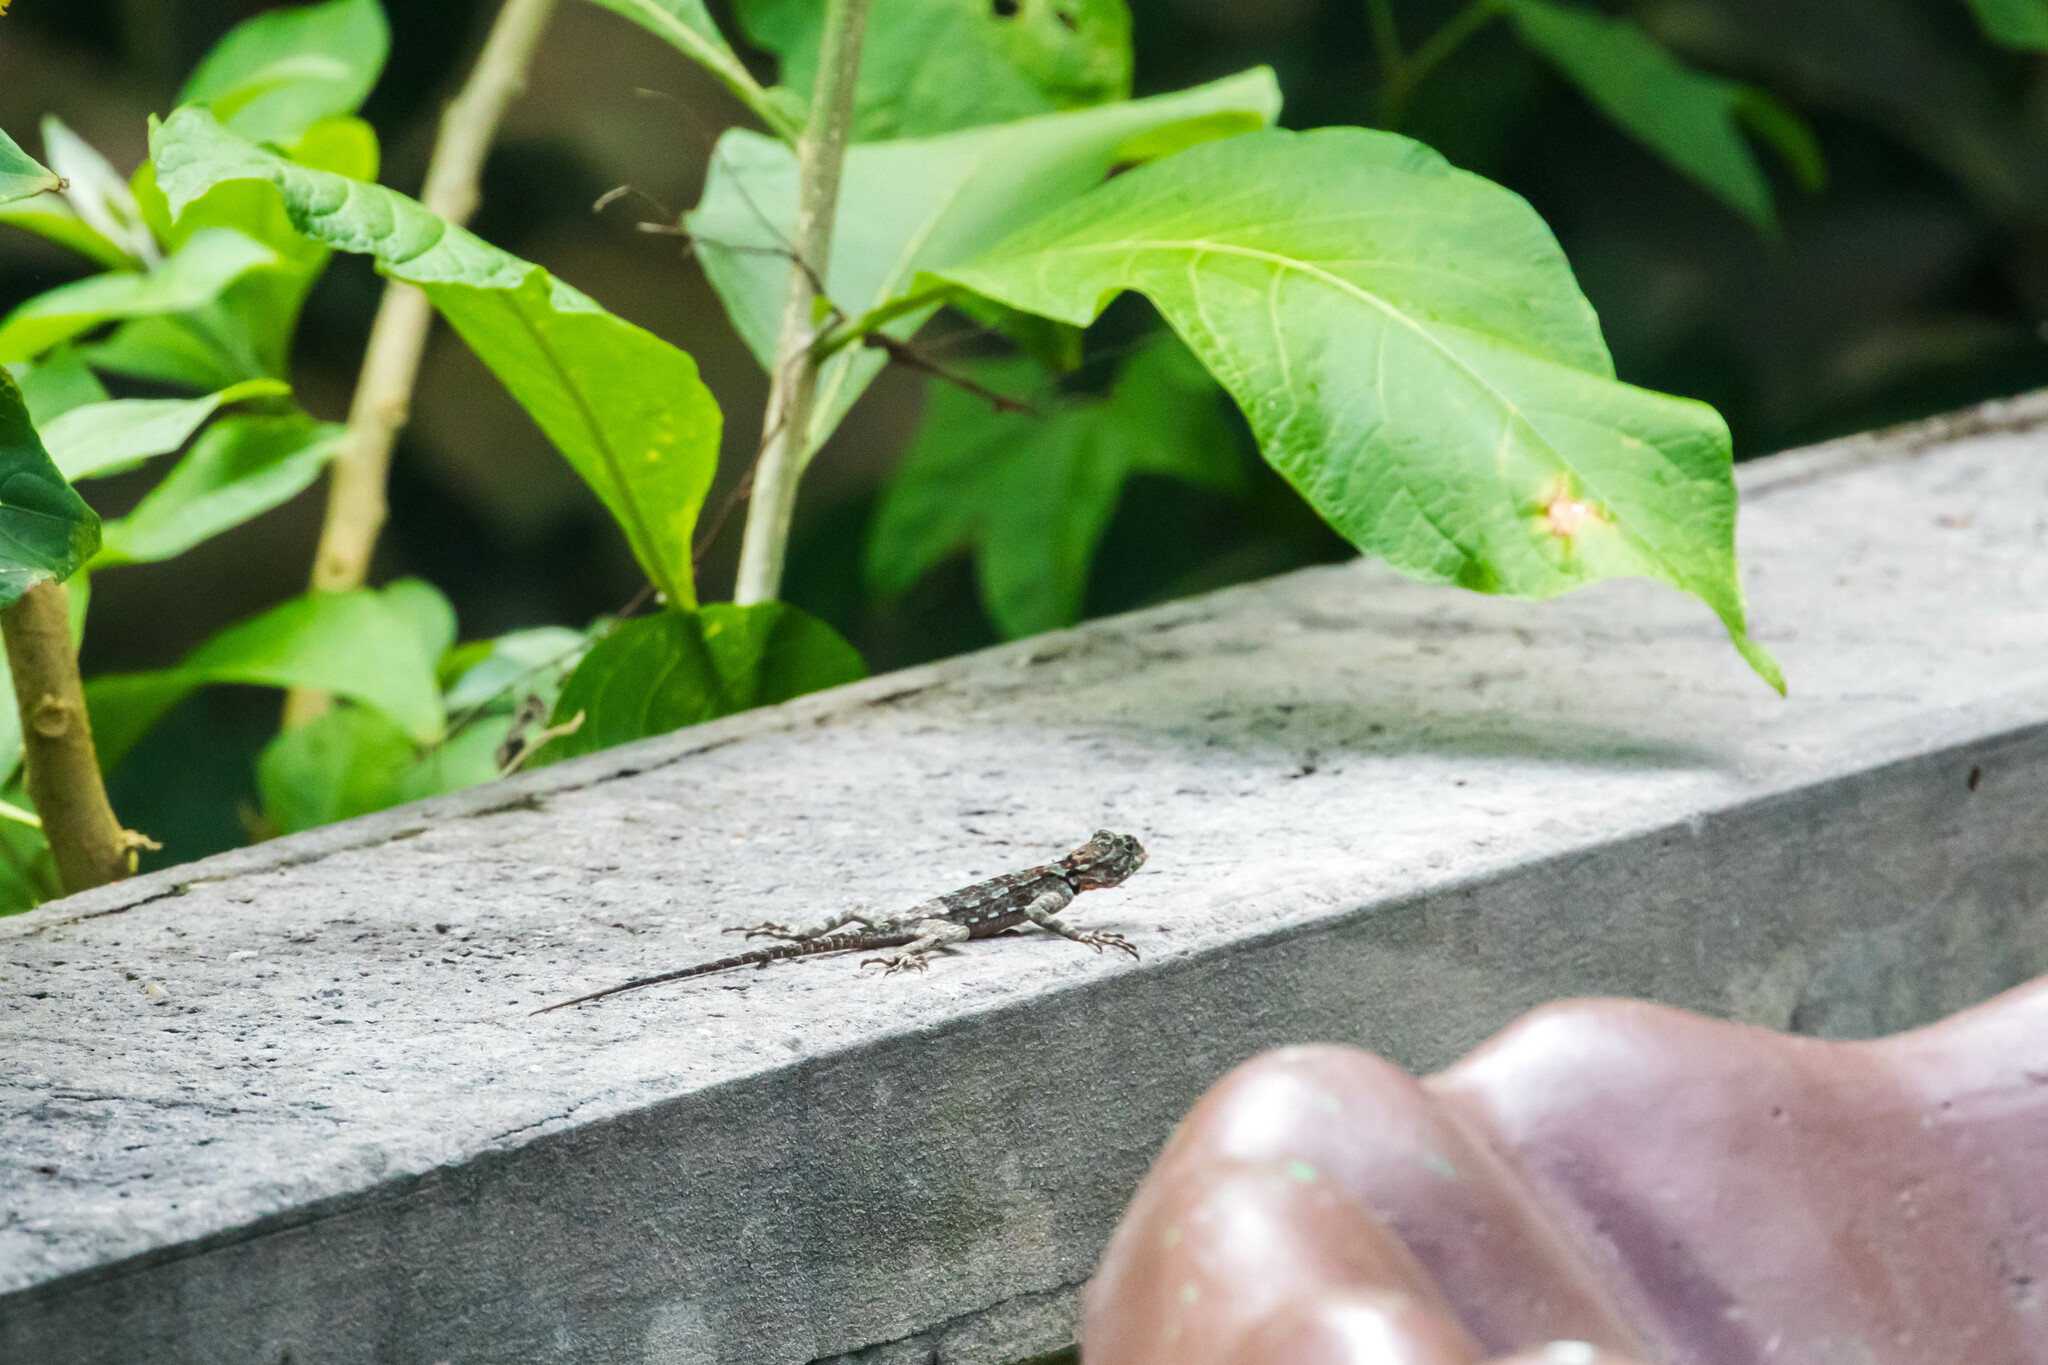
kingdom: Animalia
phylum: Chordata
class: Squamata
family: Tropiduridae
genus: Plica
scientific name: Plica caribeana
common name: Caribbean treerunner
